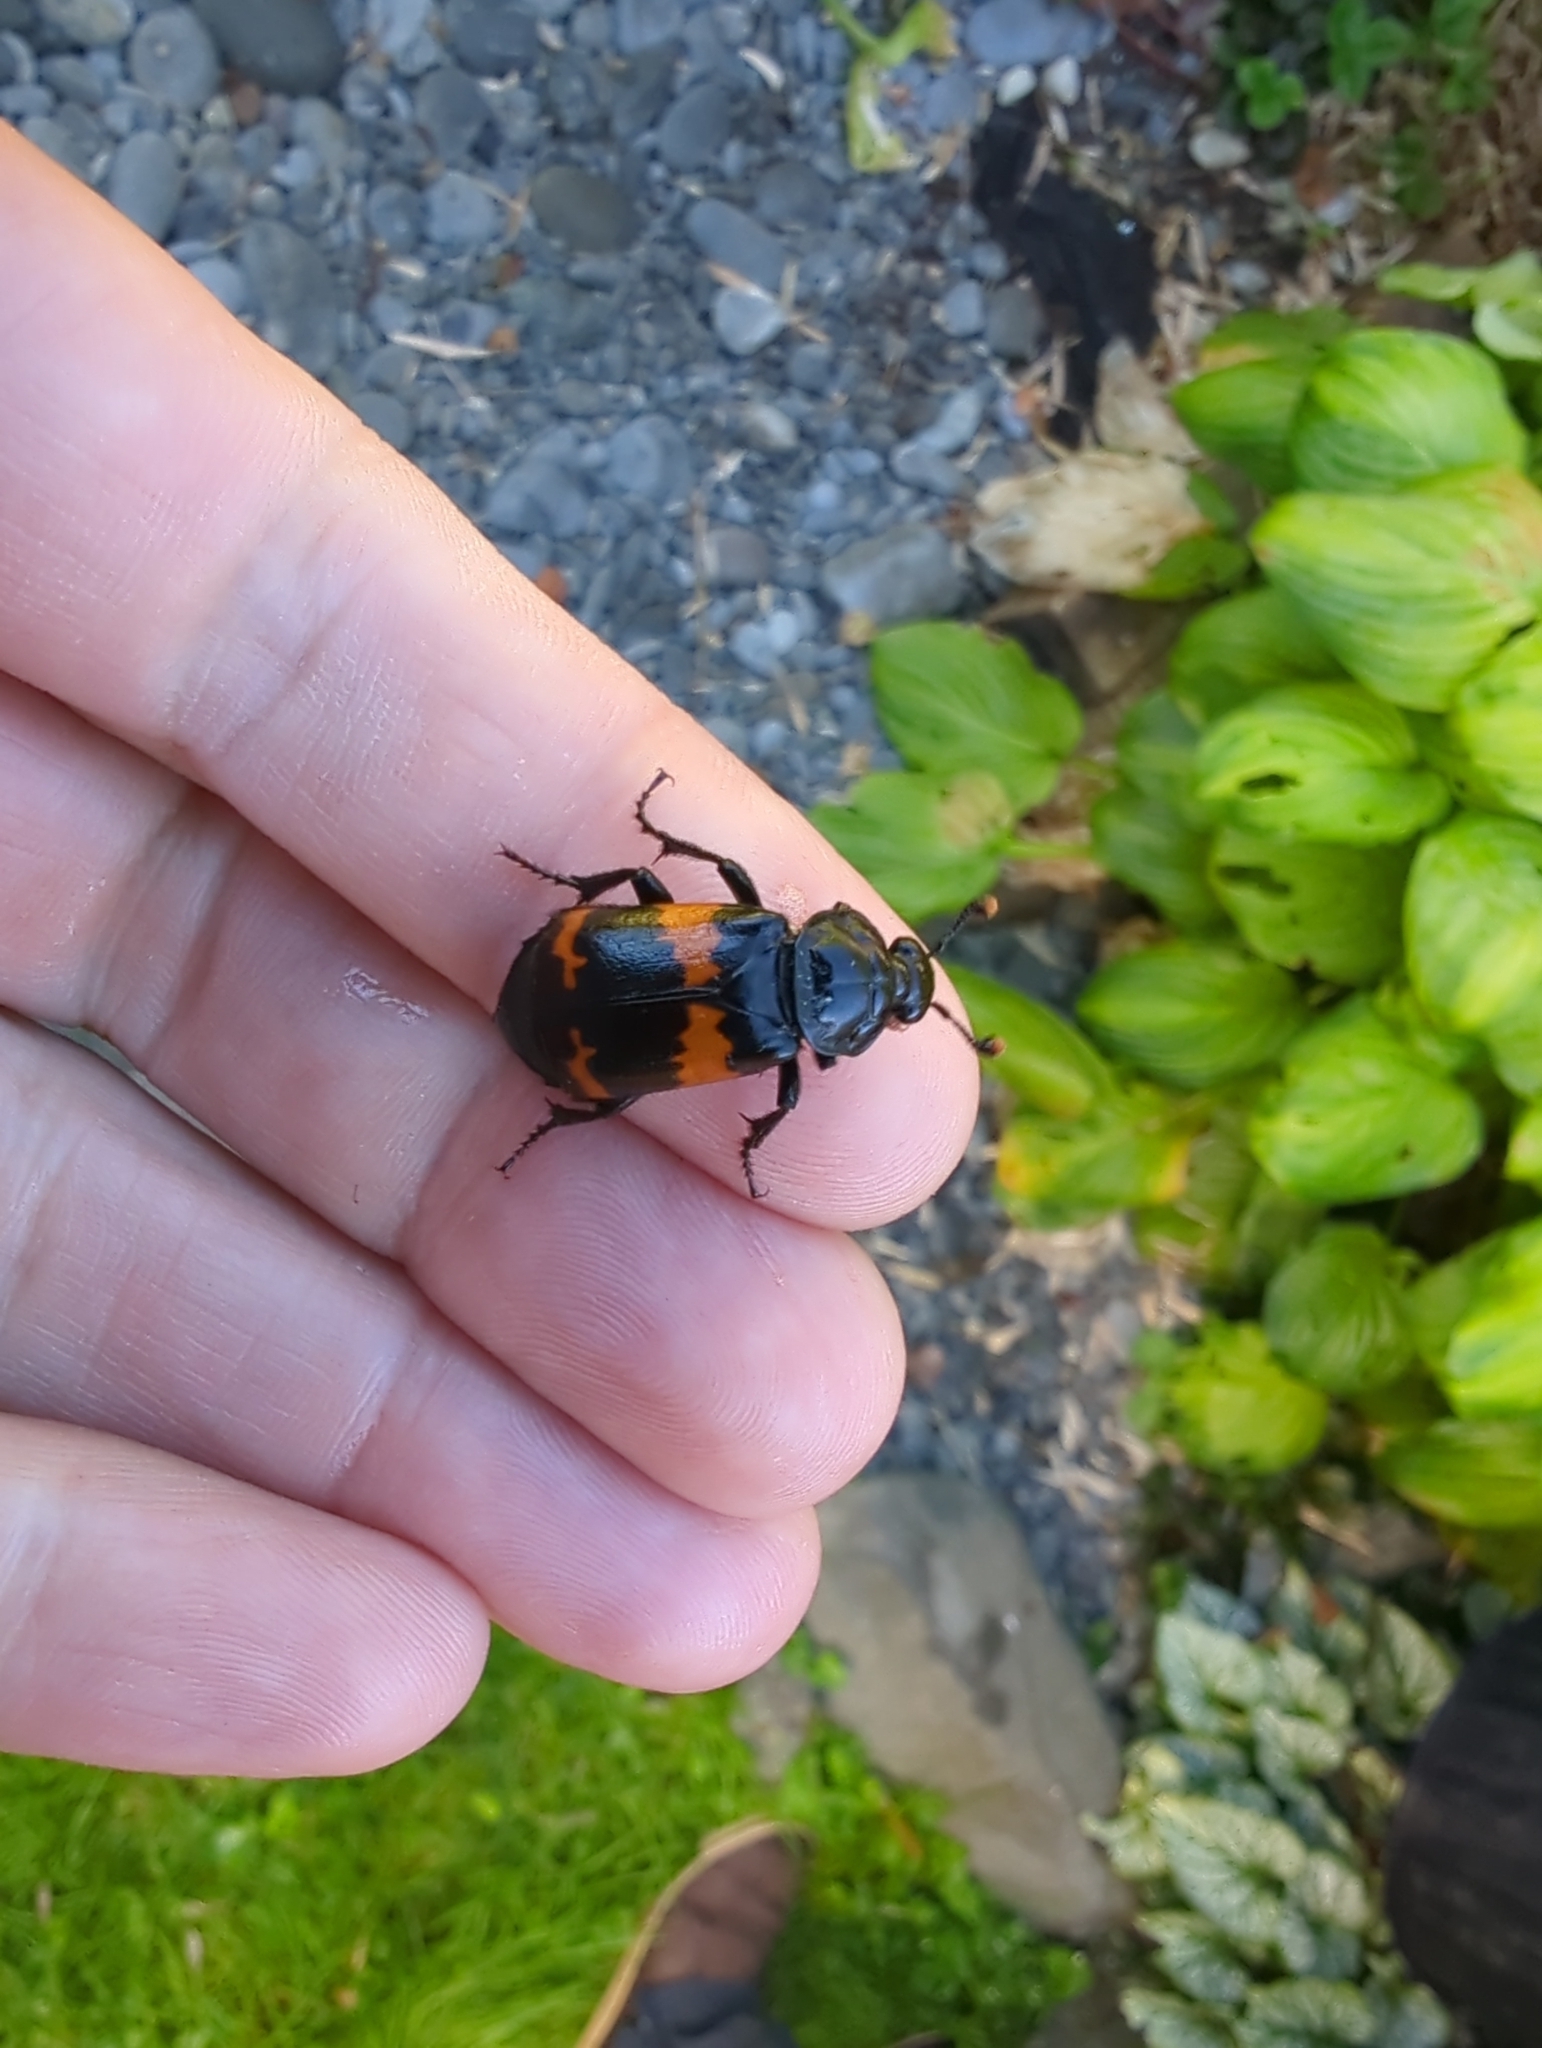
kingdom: Animalia
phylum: Arthropoda
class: Insecta
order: Coleoptera
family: Staphylinidae
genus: Nicrophorus
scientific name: Nicrophorus investigator
